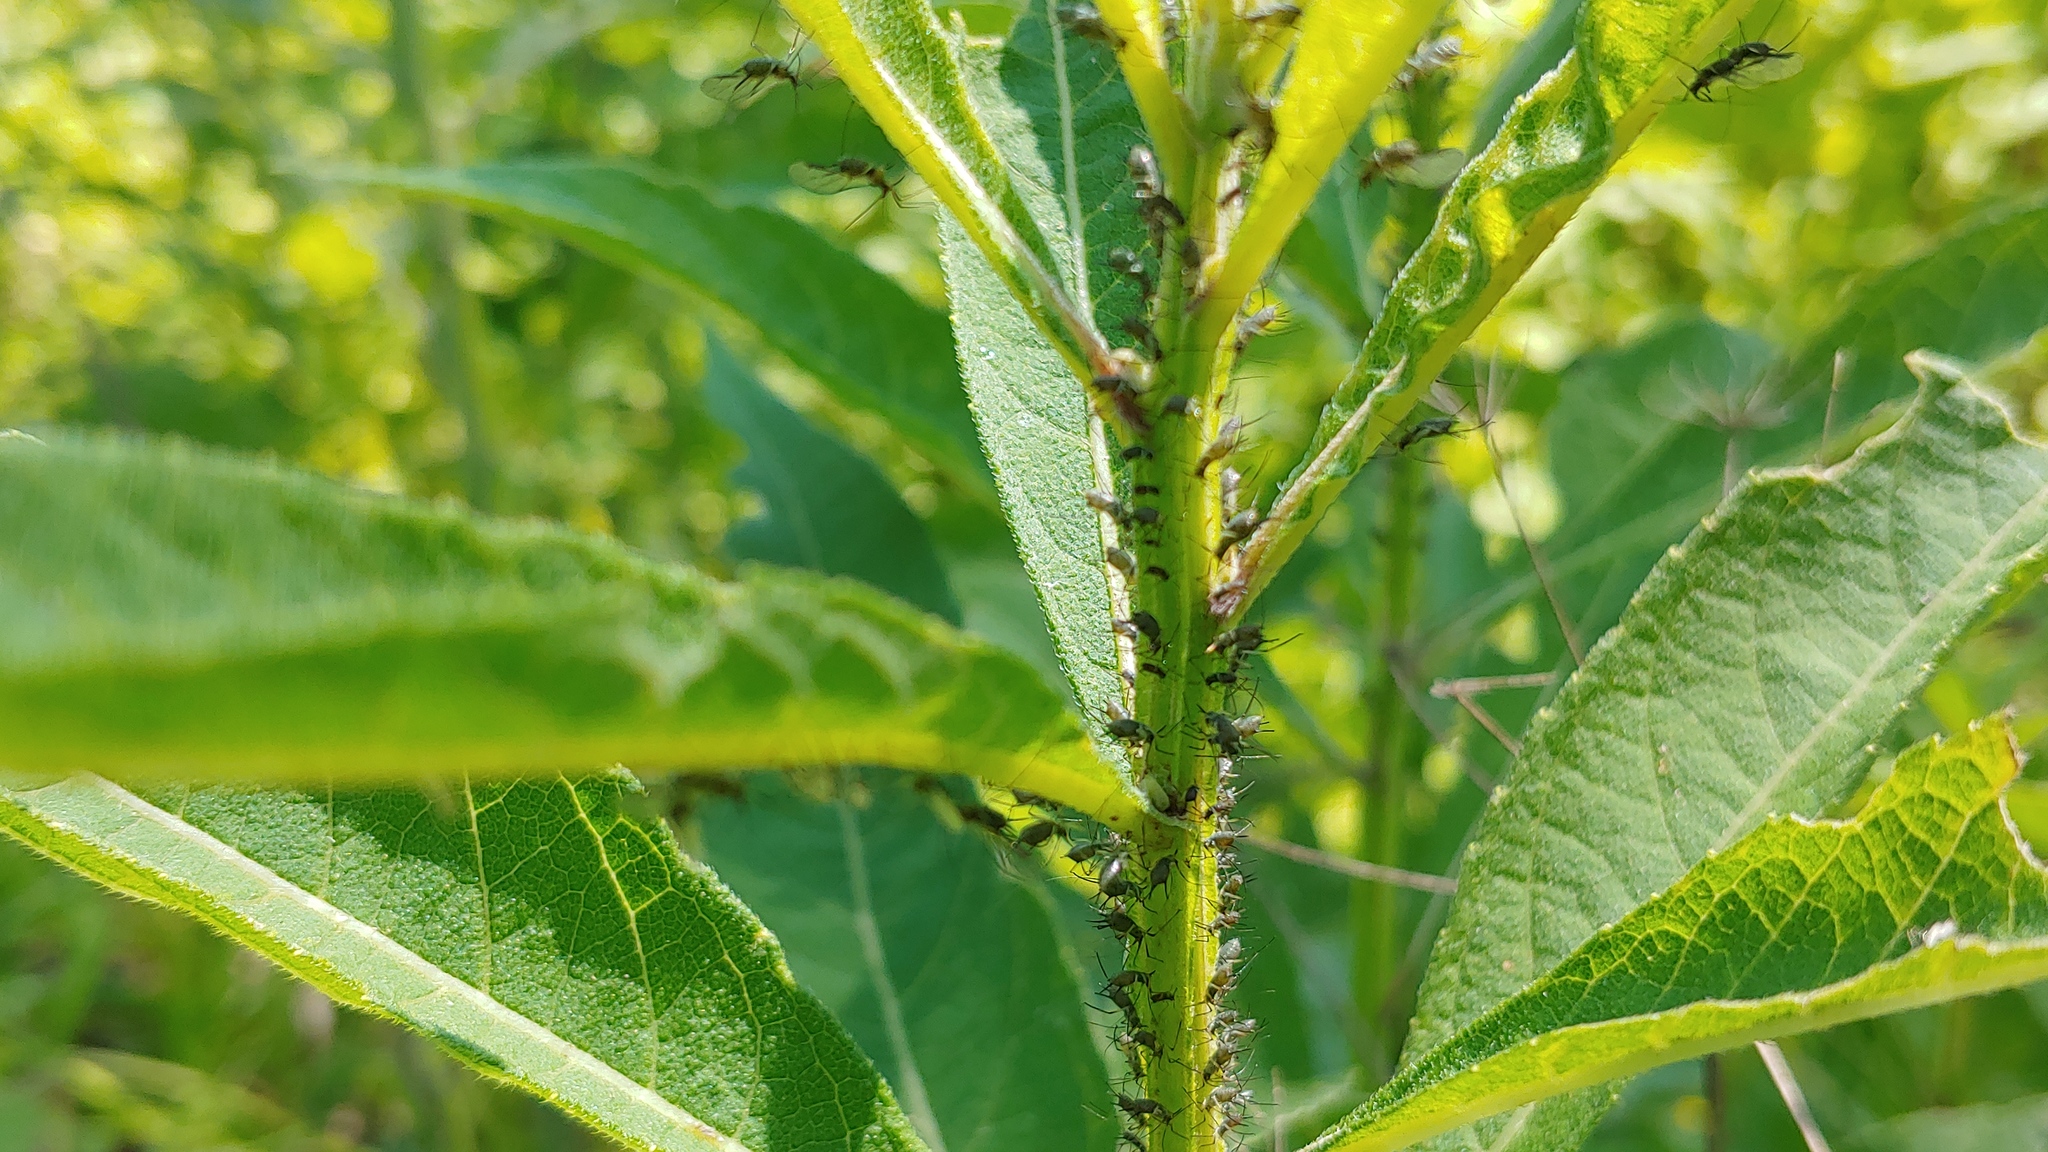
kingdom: Animalia
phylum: Arthropoda
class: Insecta
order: Hemiptera
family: Aphididae
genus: Uroleucon
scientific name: Uroleucon rurale
